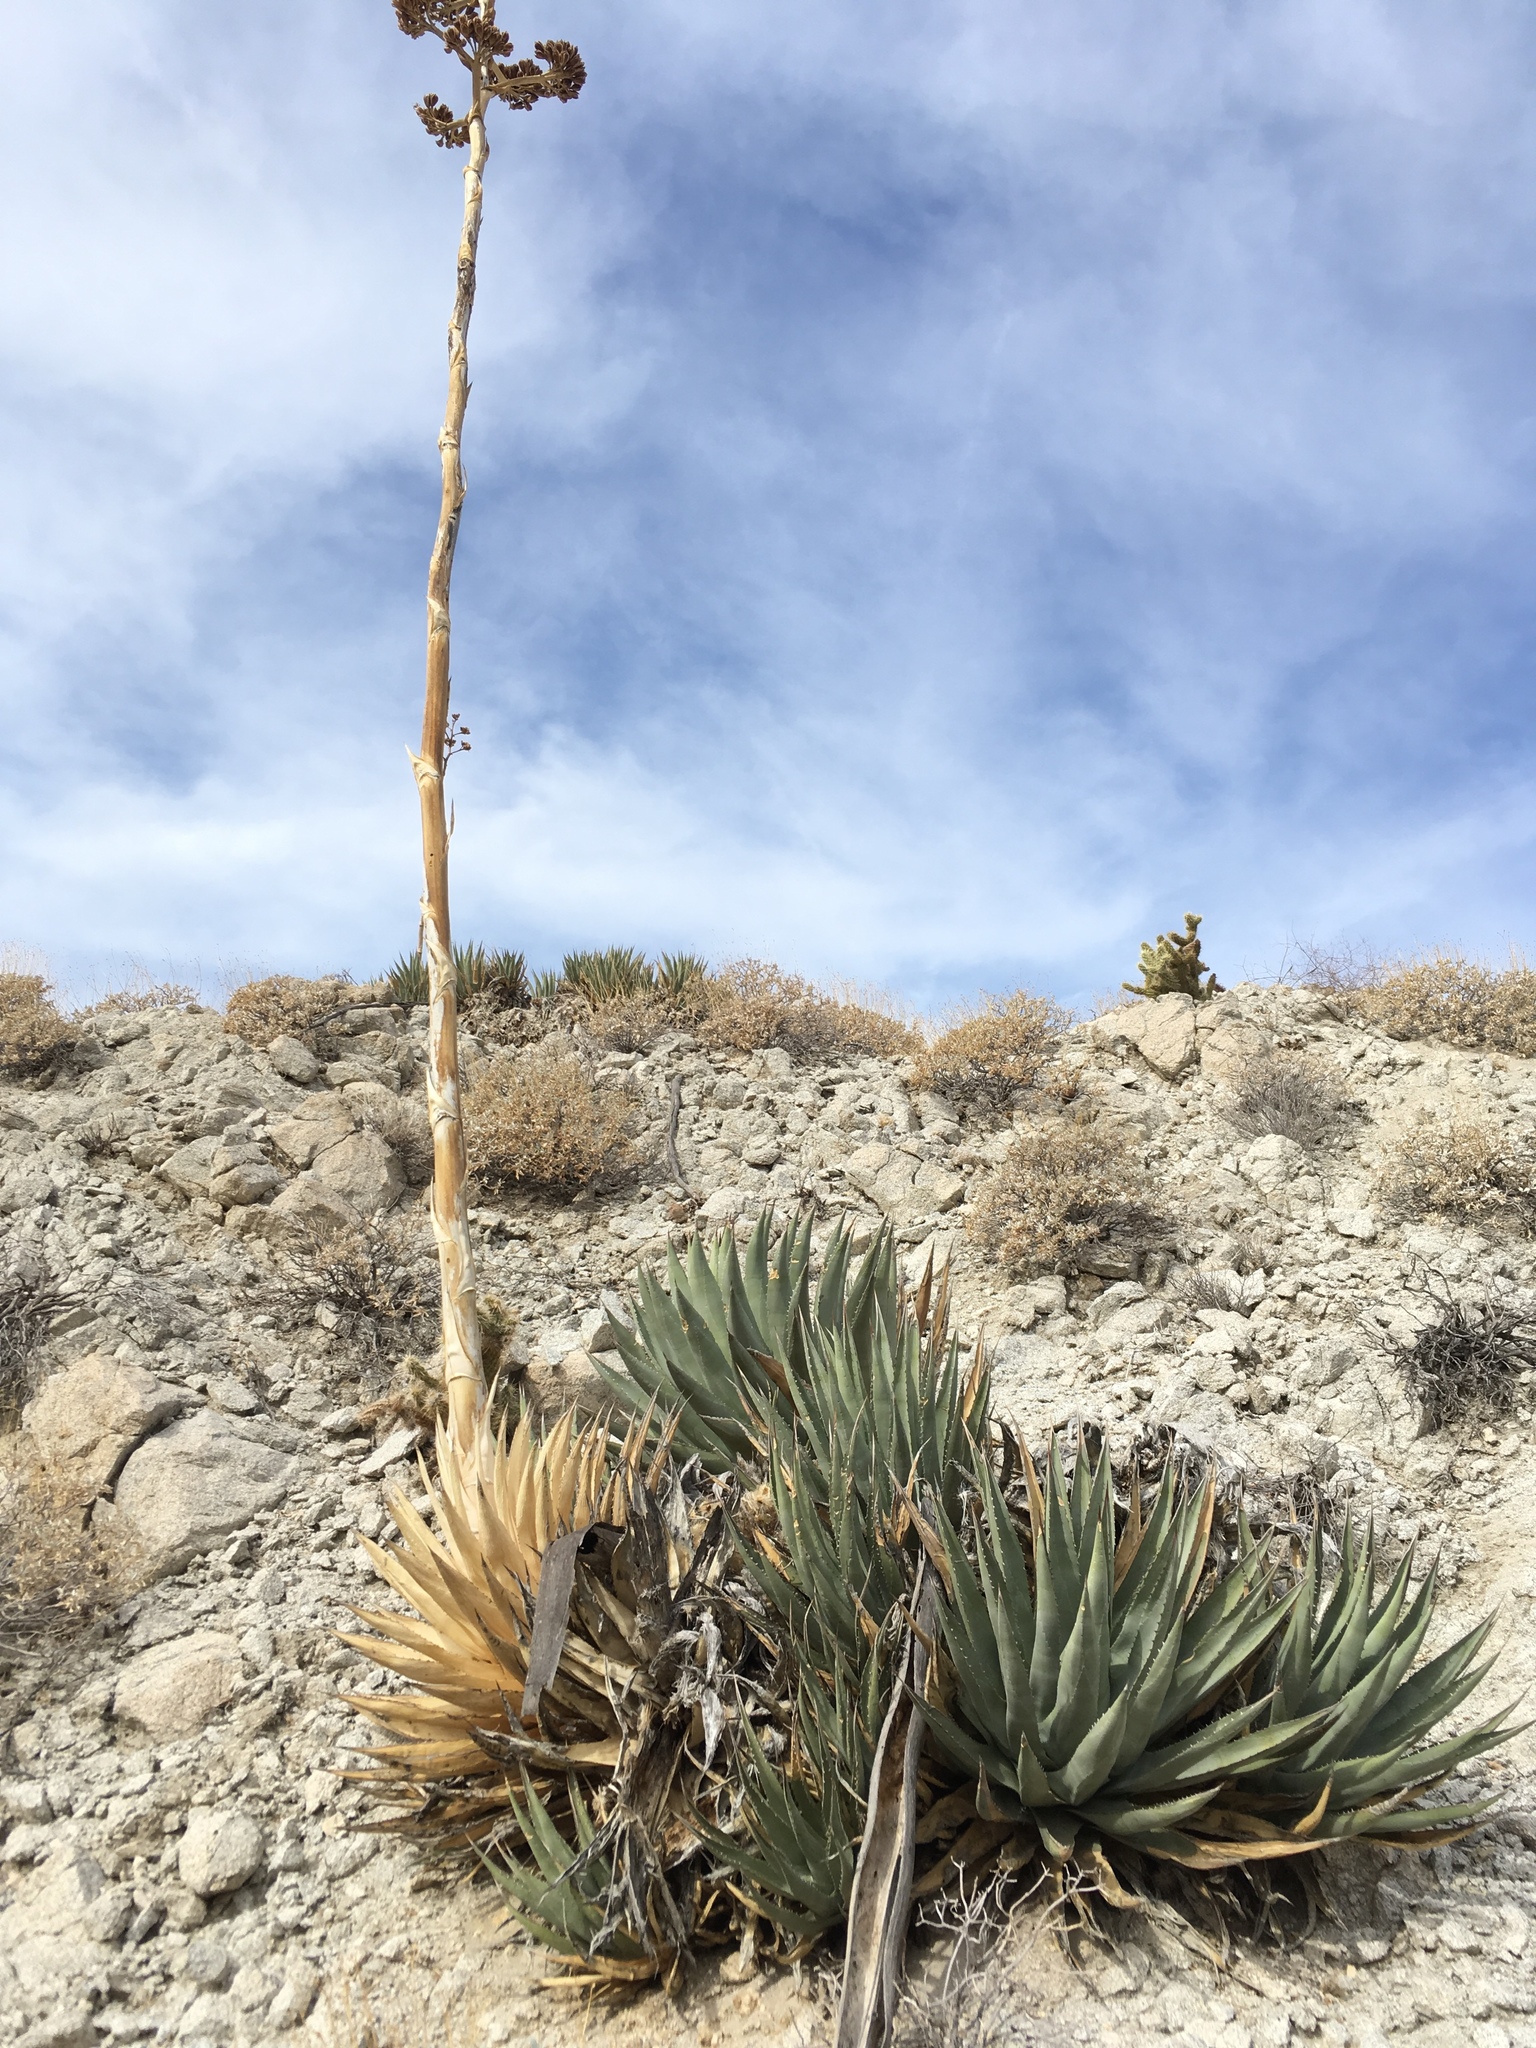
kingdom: Plantae
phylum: Tracheophyta
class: Liliopsida
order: Asparagales
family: Asparagaceae
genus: Agave
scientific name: Agave deserti
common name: Desert agave
